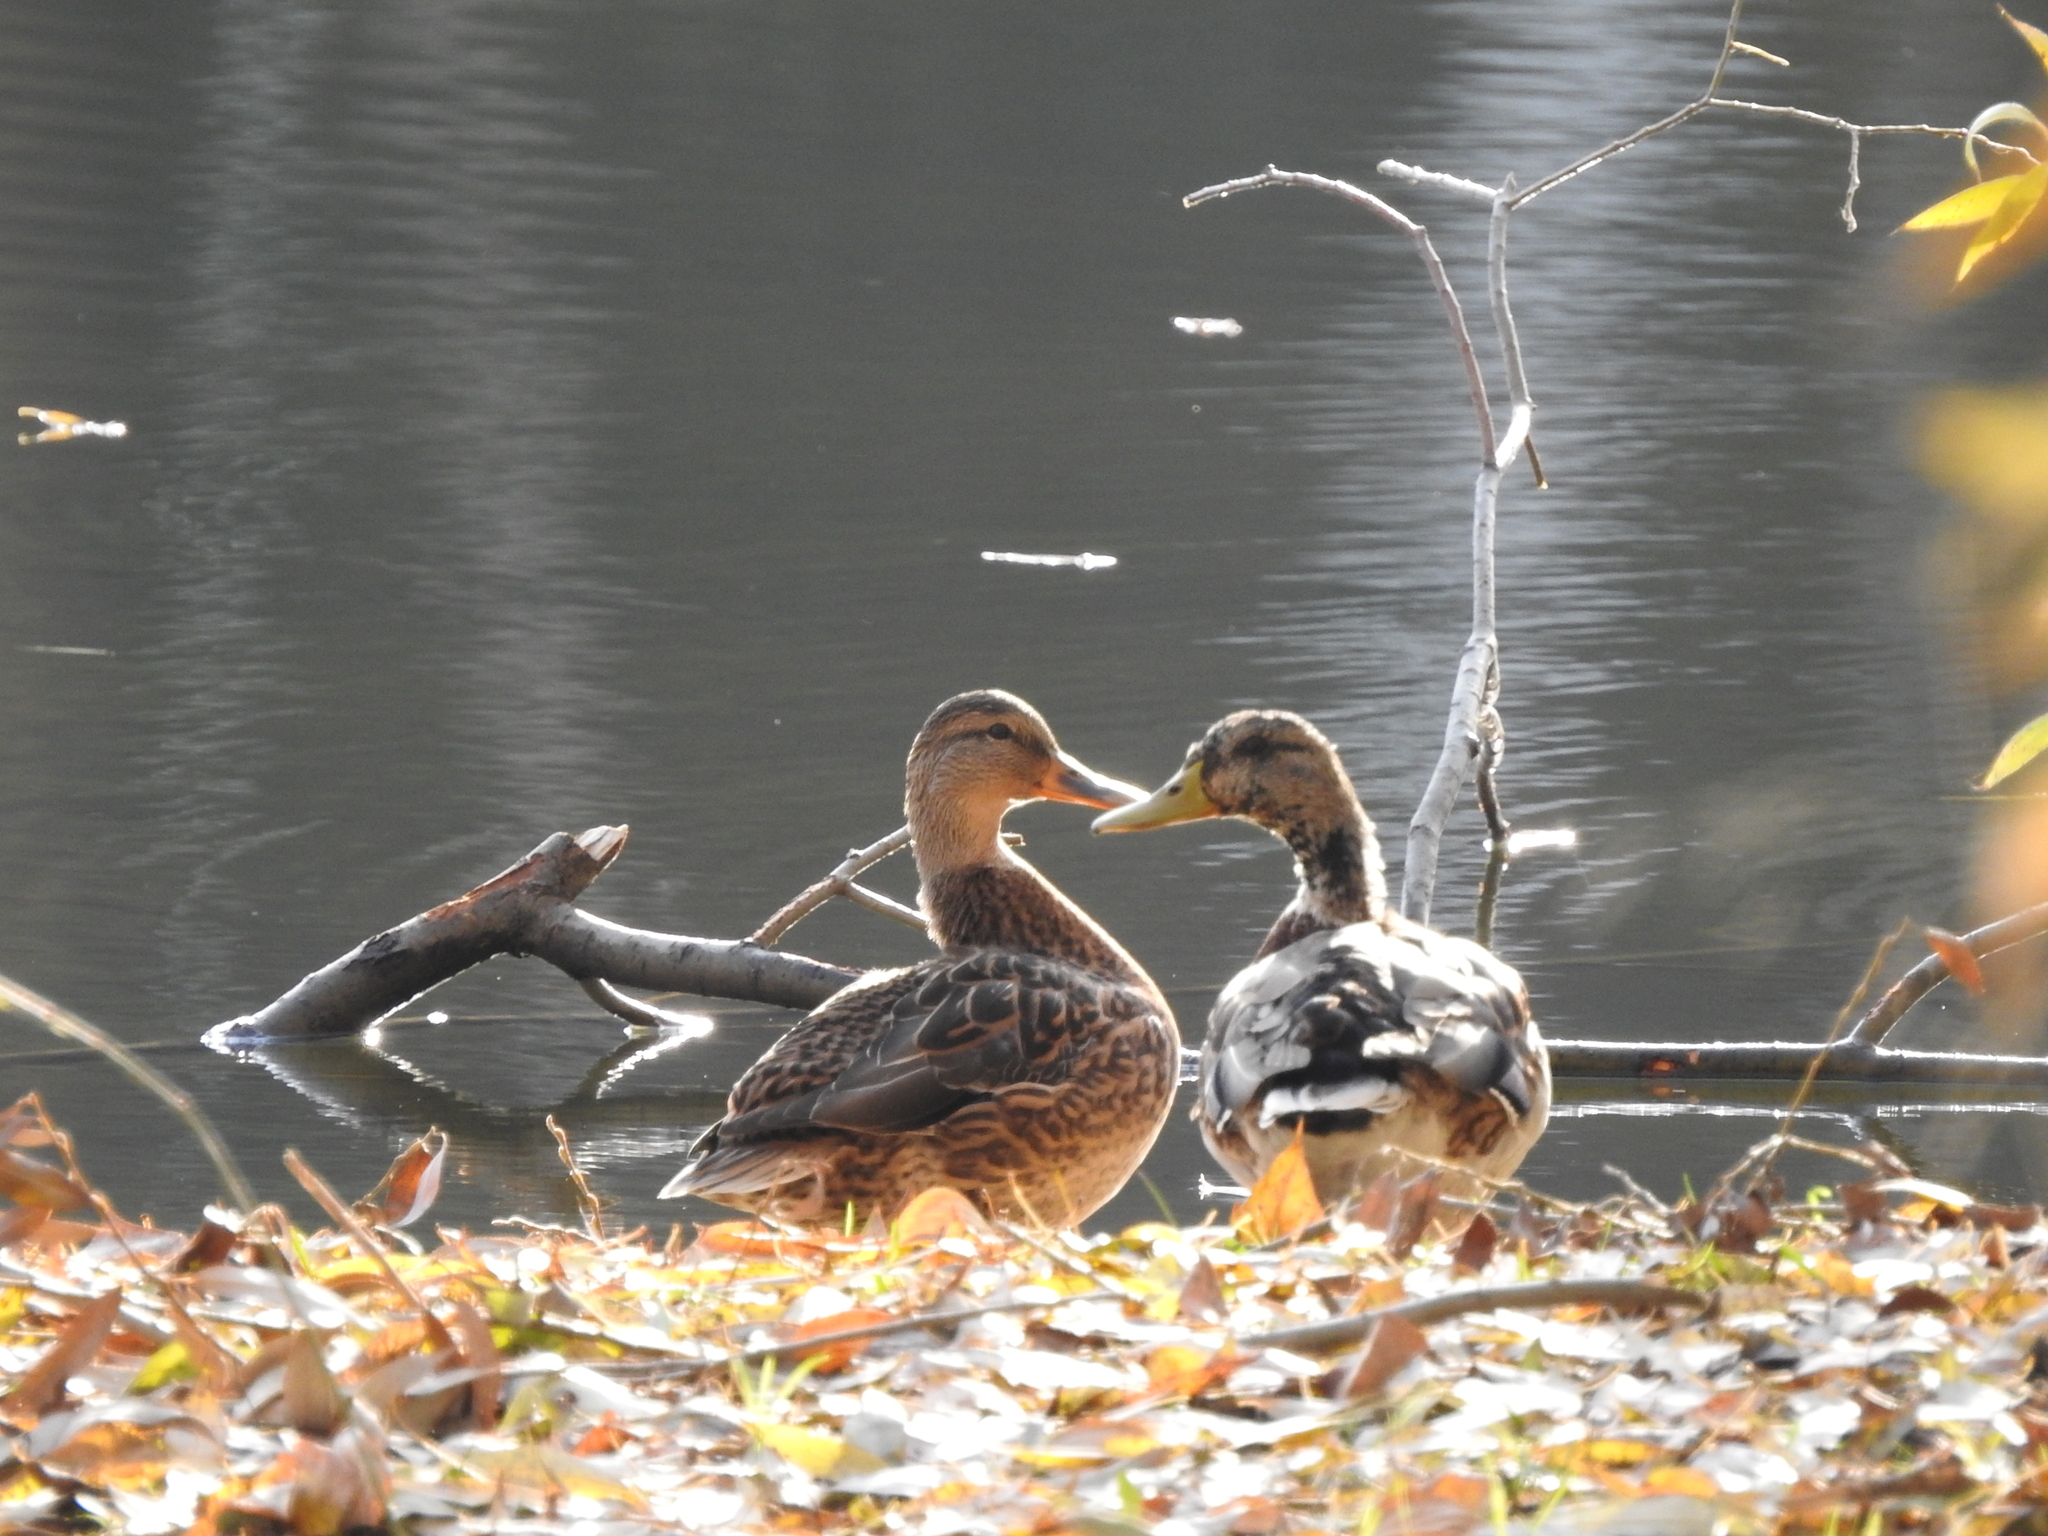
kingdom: Animalia
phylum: Chordata
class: Aves
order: Anseriformes
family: Anatidae
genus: Anas
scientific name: Anas platyrhynchos
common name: Mallard
